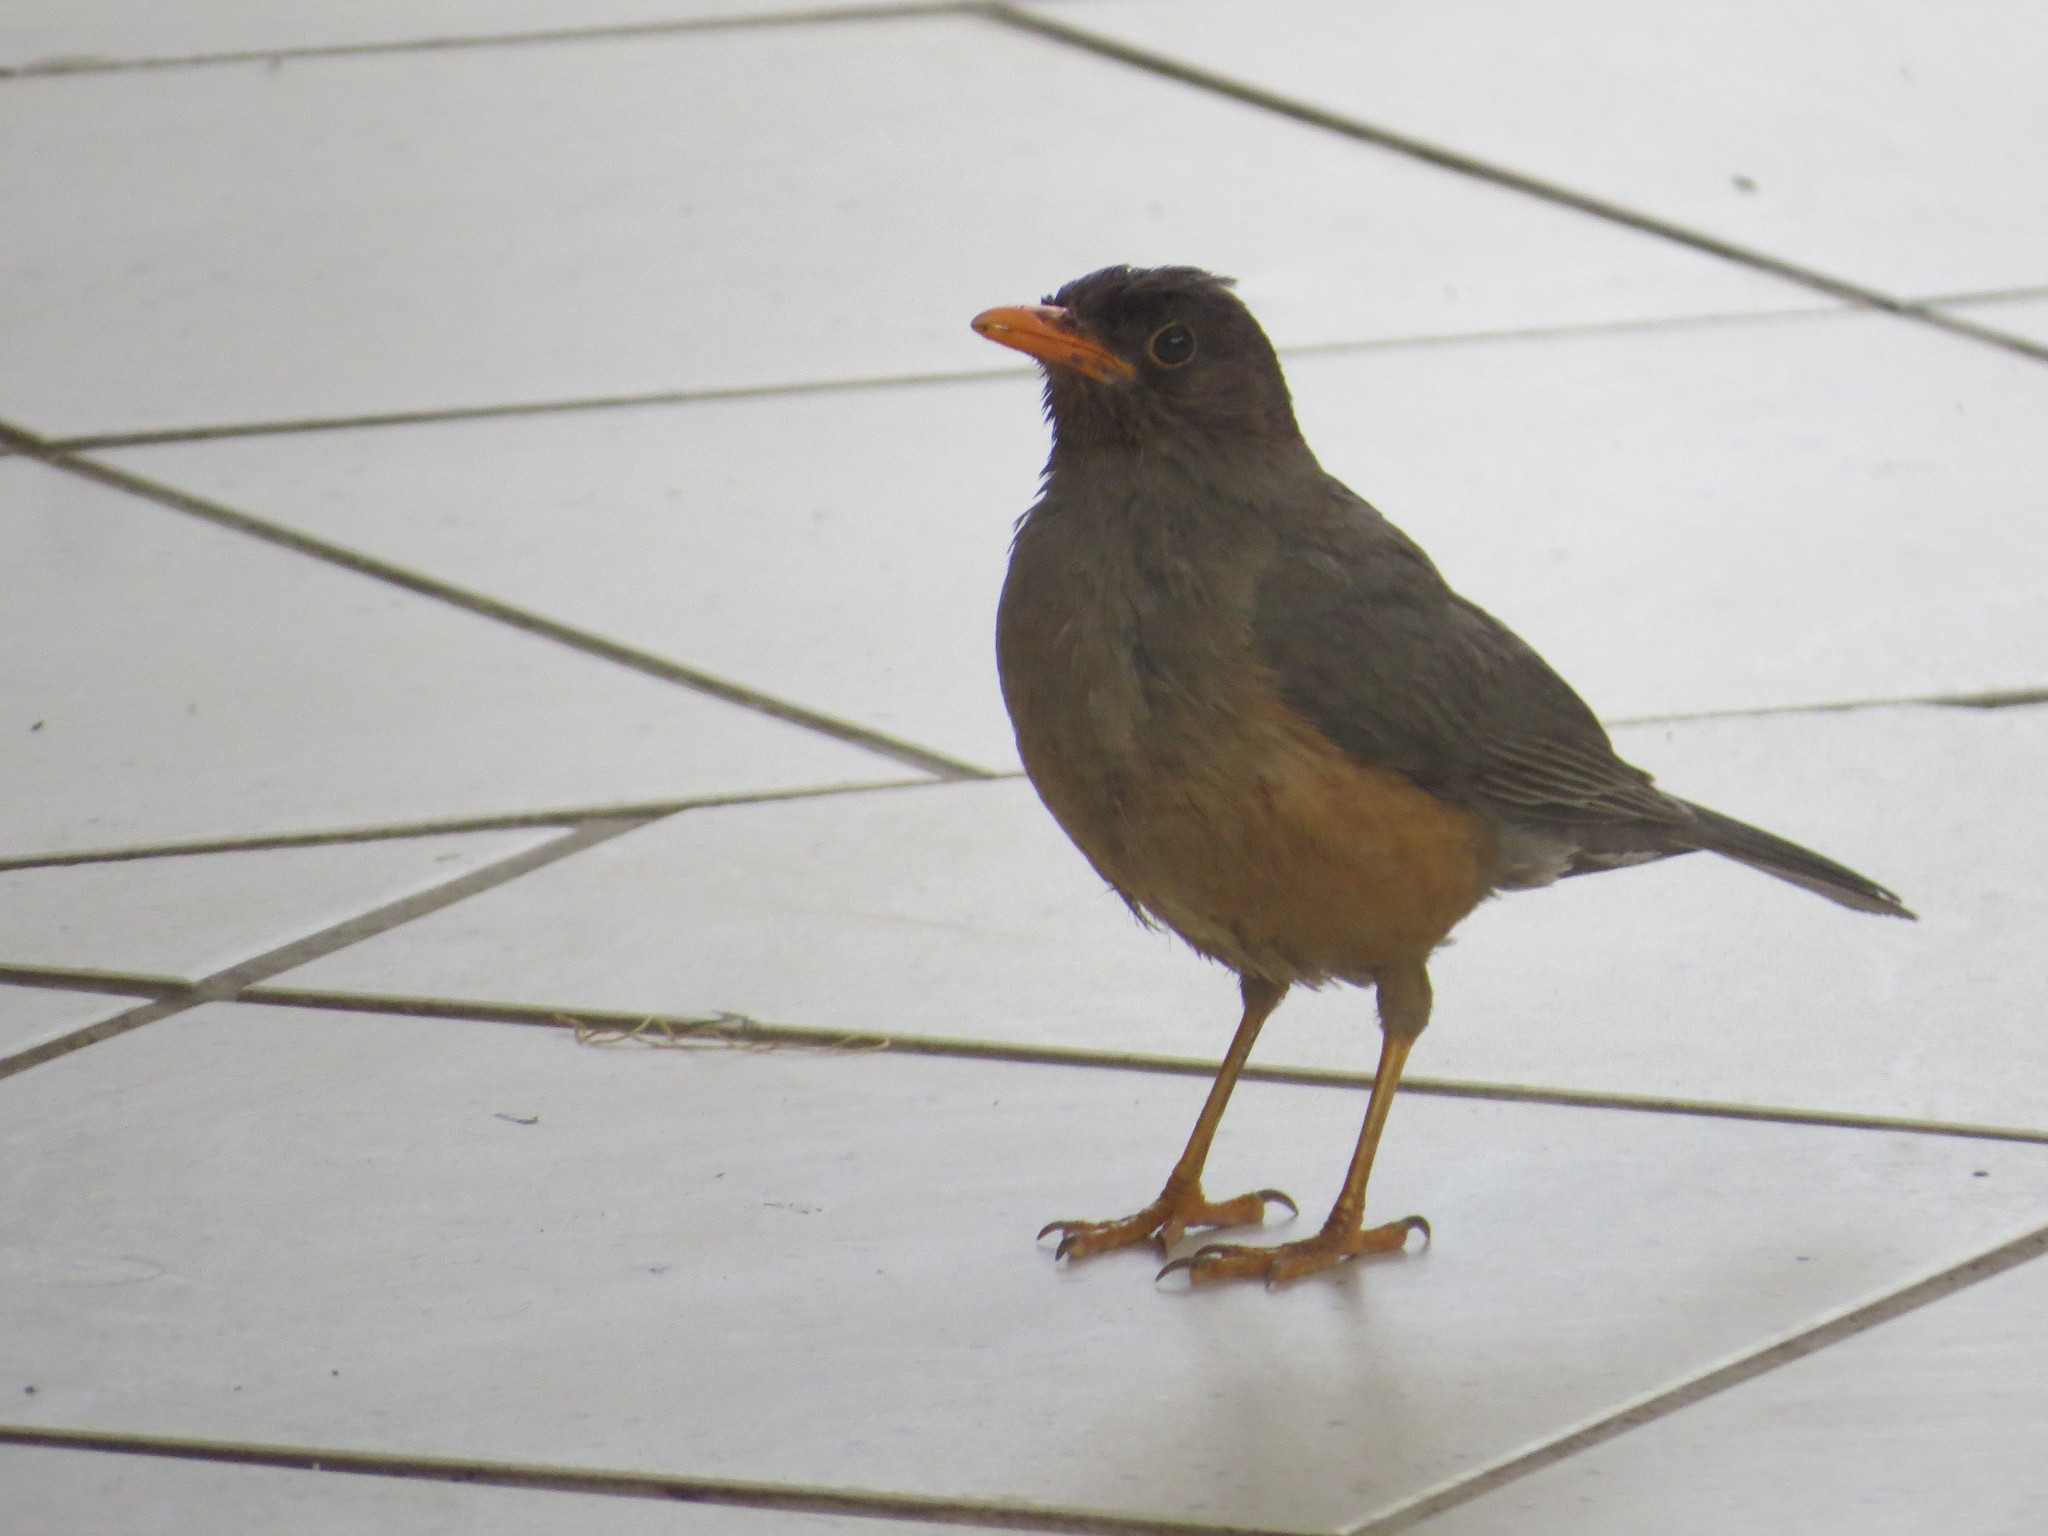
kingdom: Animalia
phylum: Chordata
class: Aves
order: Passeriformes
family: Turdidae
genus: Turdus
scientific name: Turdus abyssinicus
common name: Abyssinian thrush
